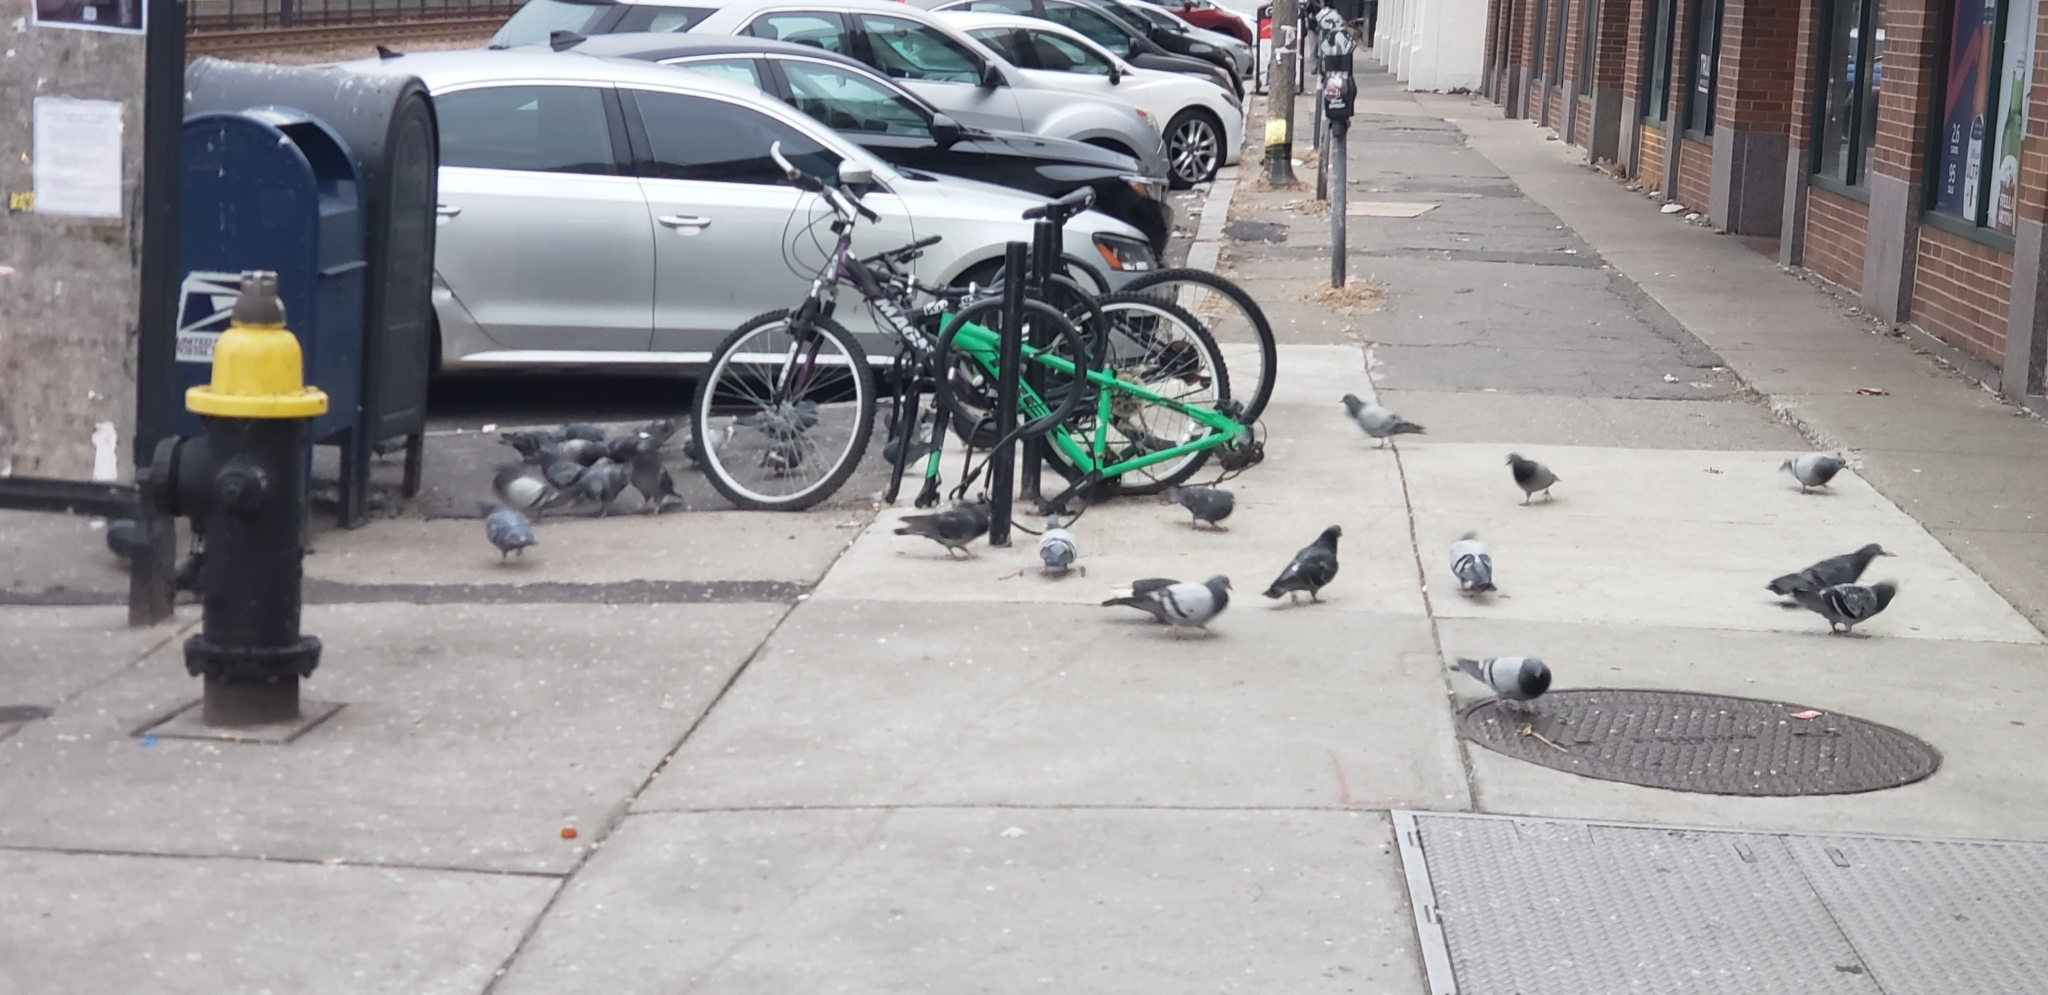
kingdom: Animalia
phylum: Chordata
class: Aves
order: Columbiformes
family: Columbidae
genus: Columba
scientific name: Columba livia
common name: Rock pigeon
